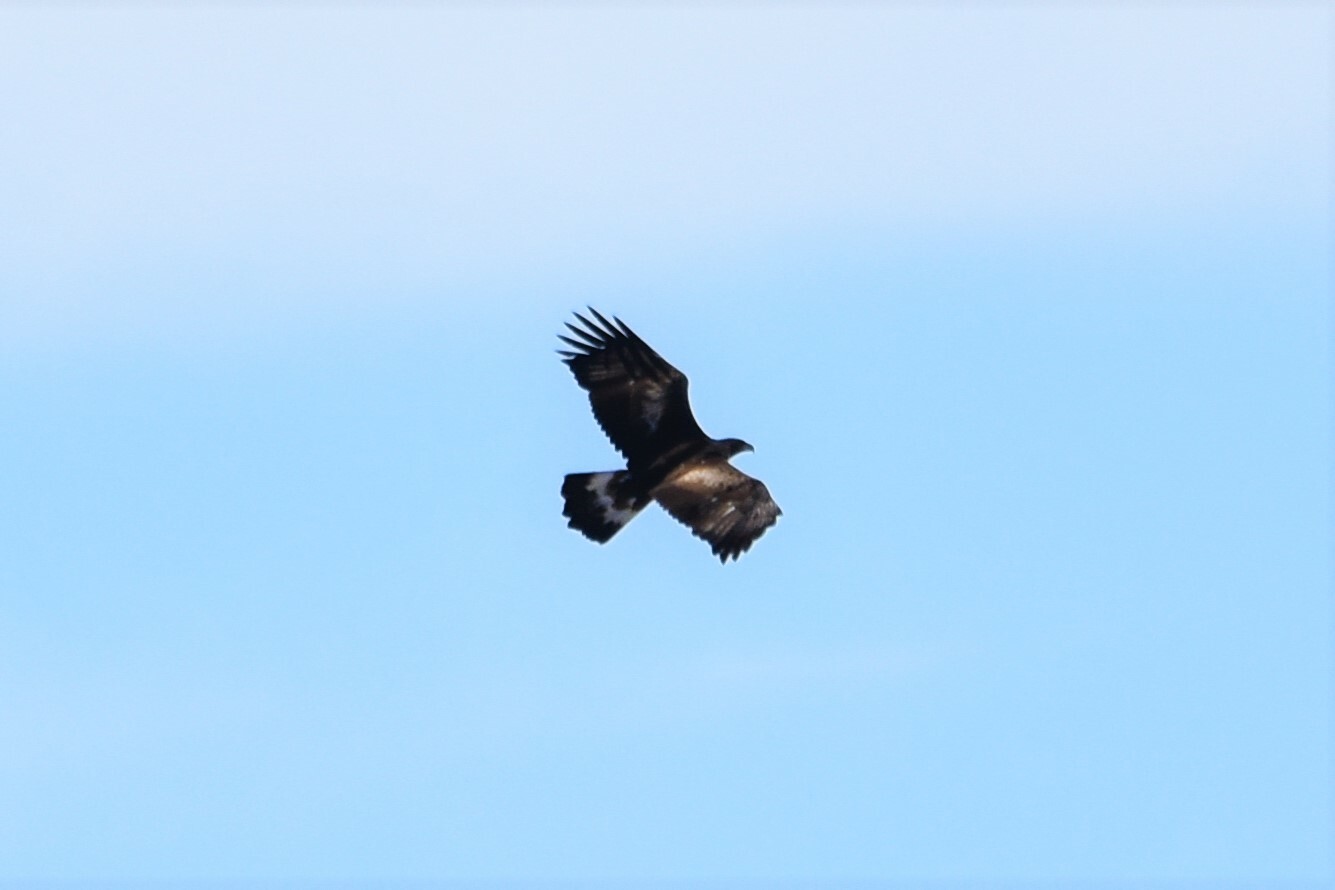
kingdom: Animalia
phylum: Chordata
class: Aves
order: Accipitriformes
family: Accipitridae
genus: Aquila
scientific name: Aquila chrysaetos
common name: Golden eagle
